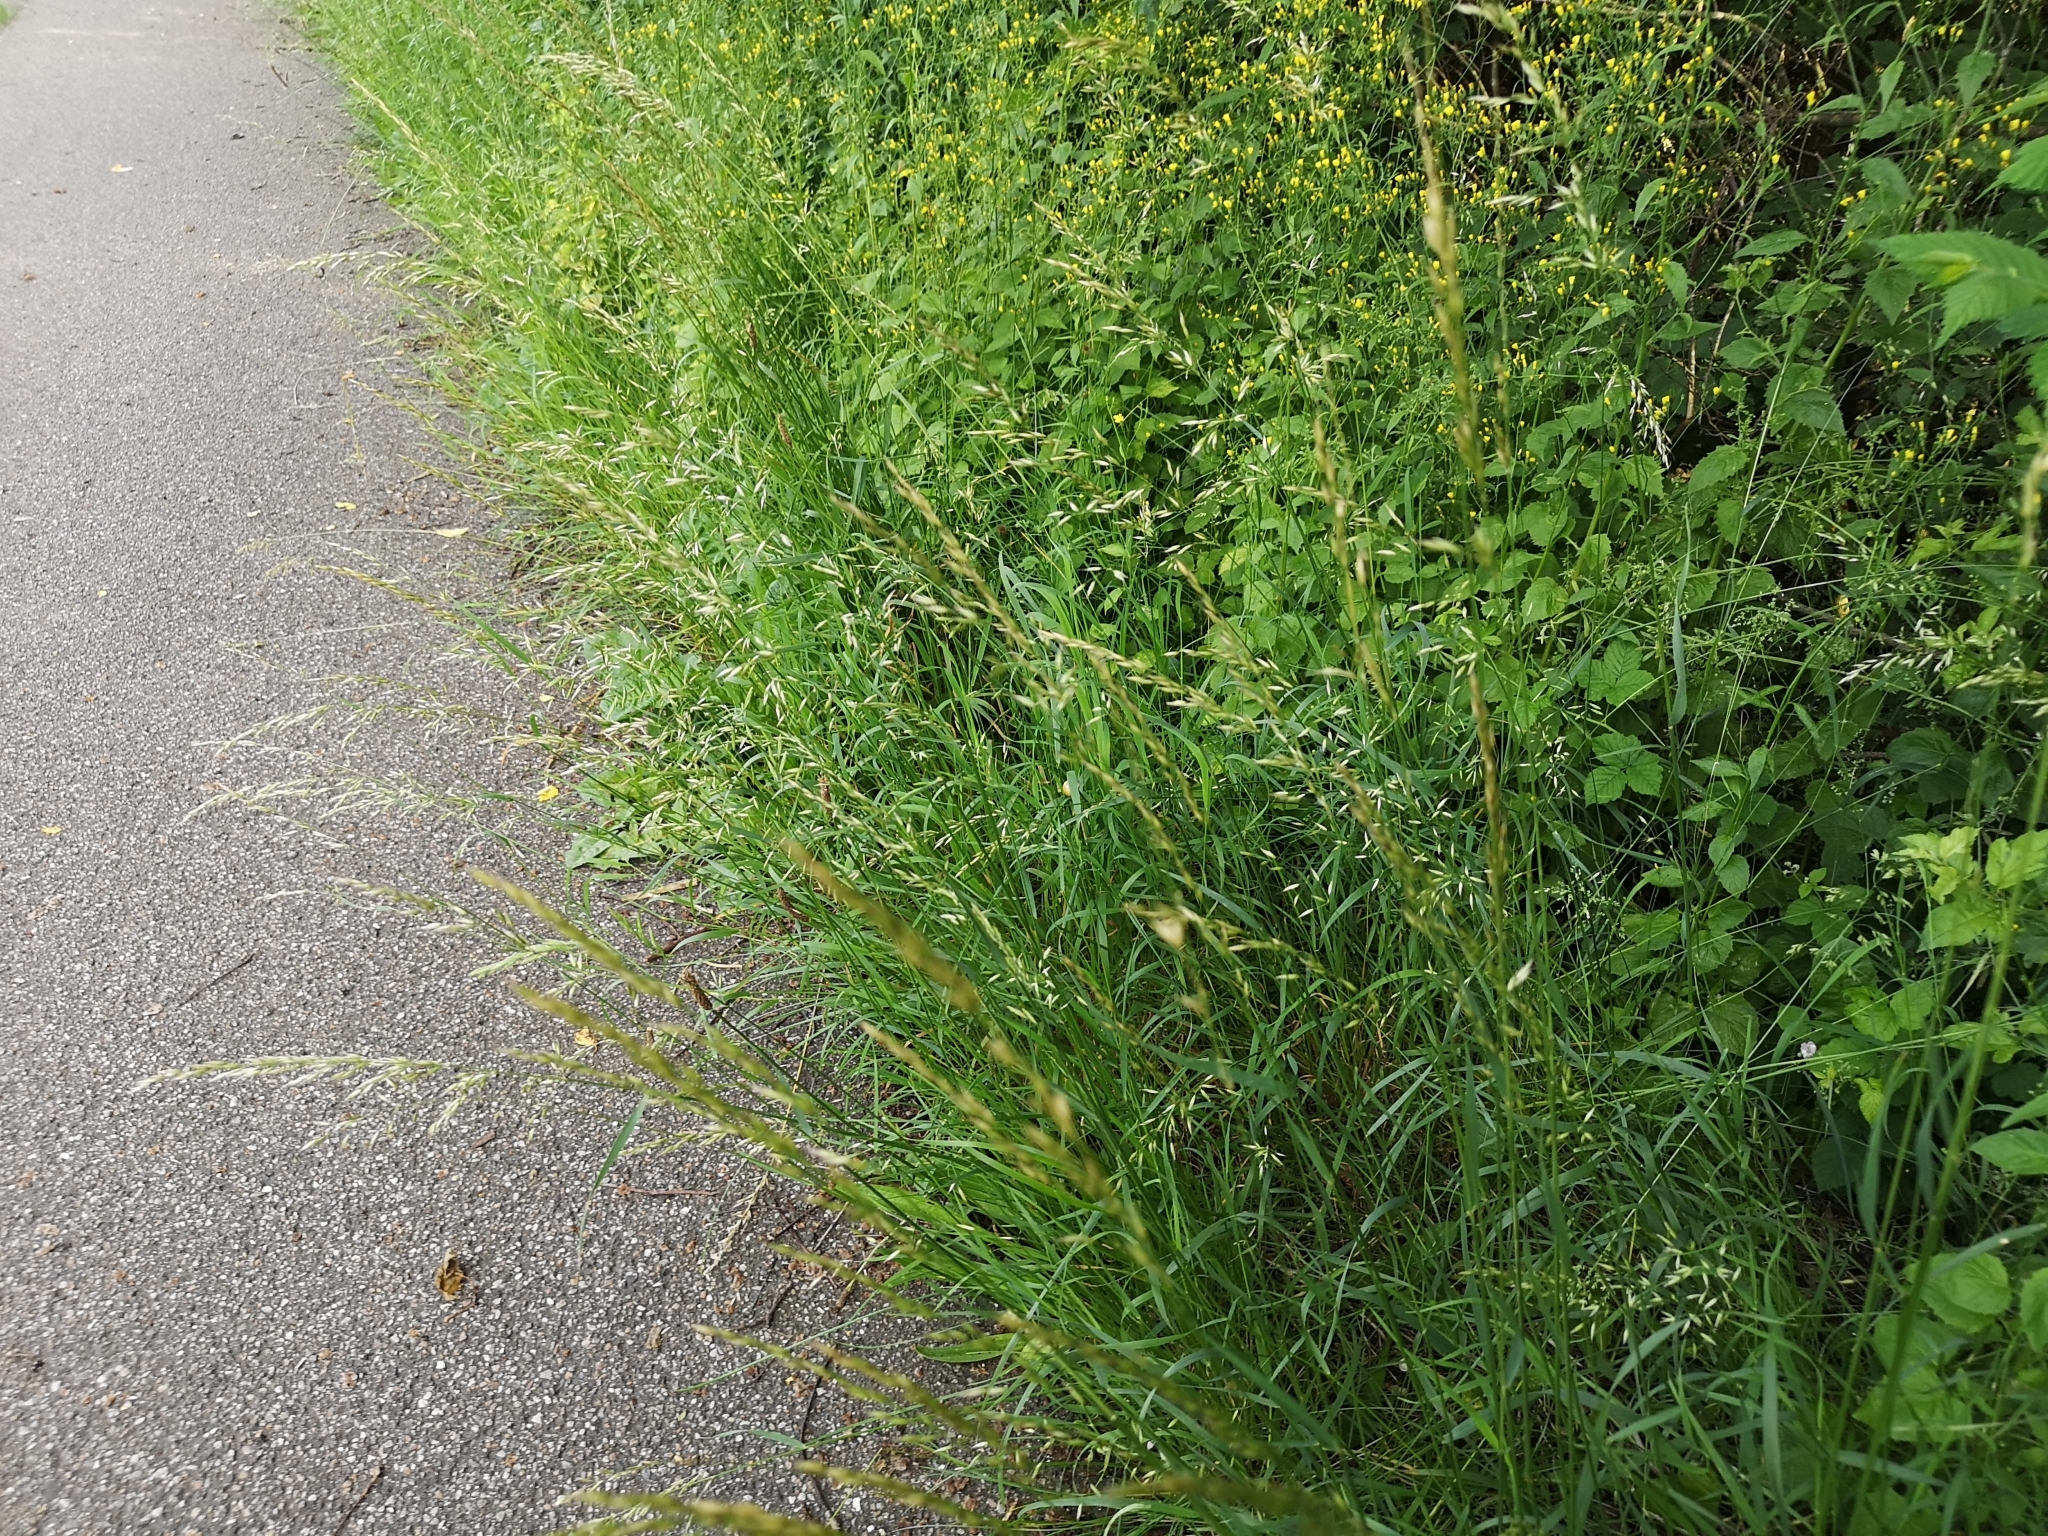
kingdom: Plantae
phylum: Tracheophyta
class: Liliopsida
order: Poales
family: Poaceae
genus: Arrhenatherum
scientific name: Arrhenatherum elatius
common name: Tall oatgrass
